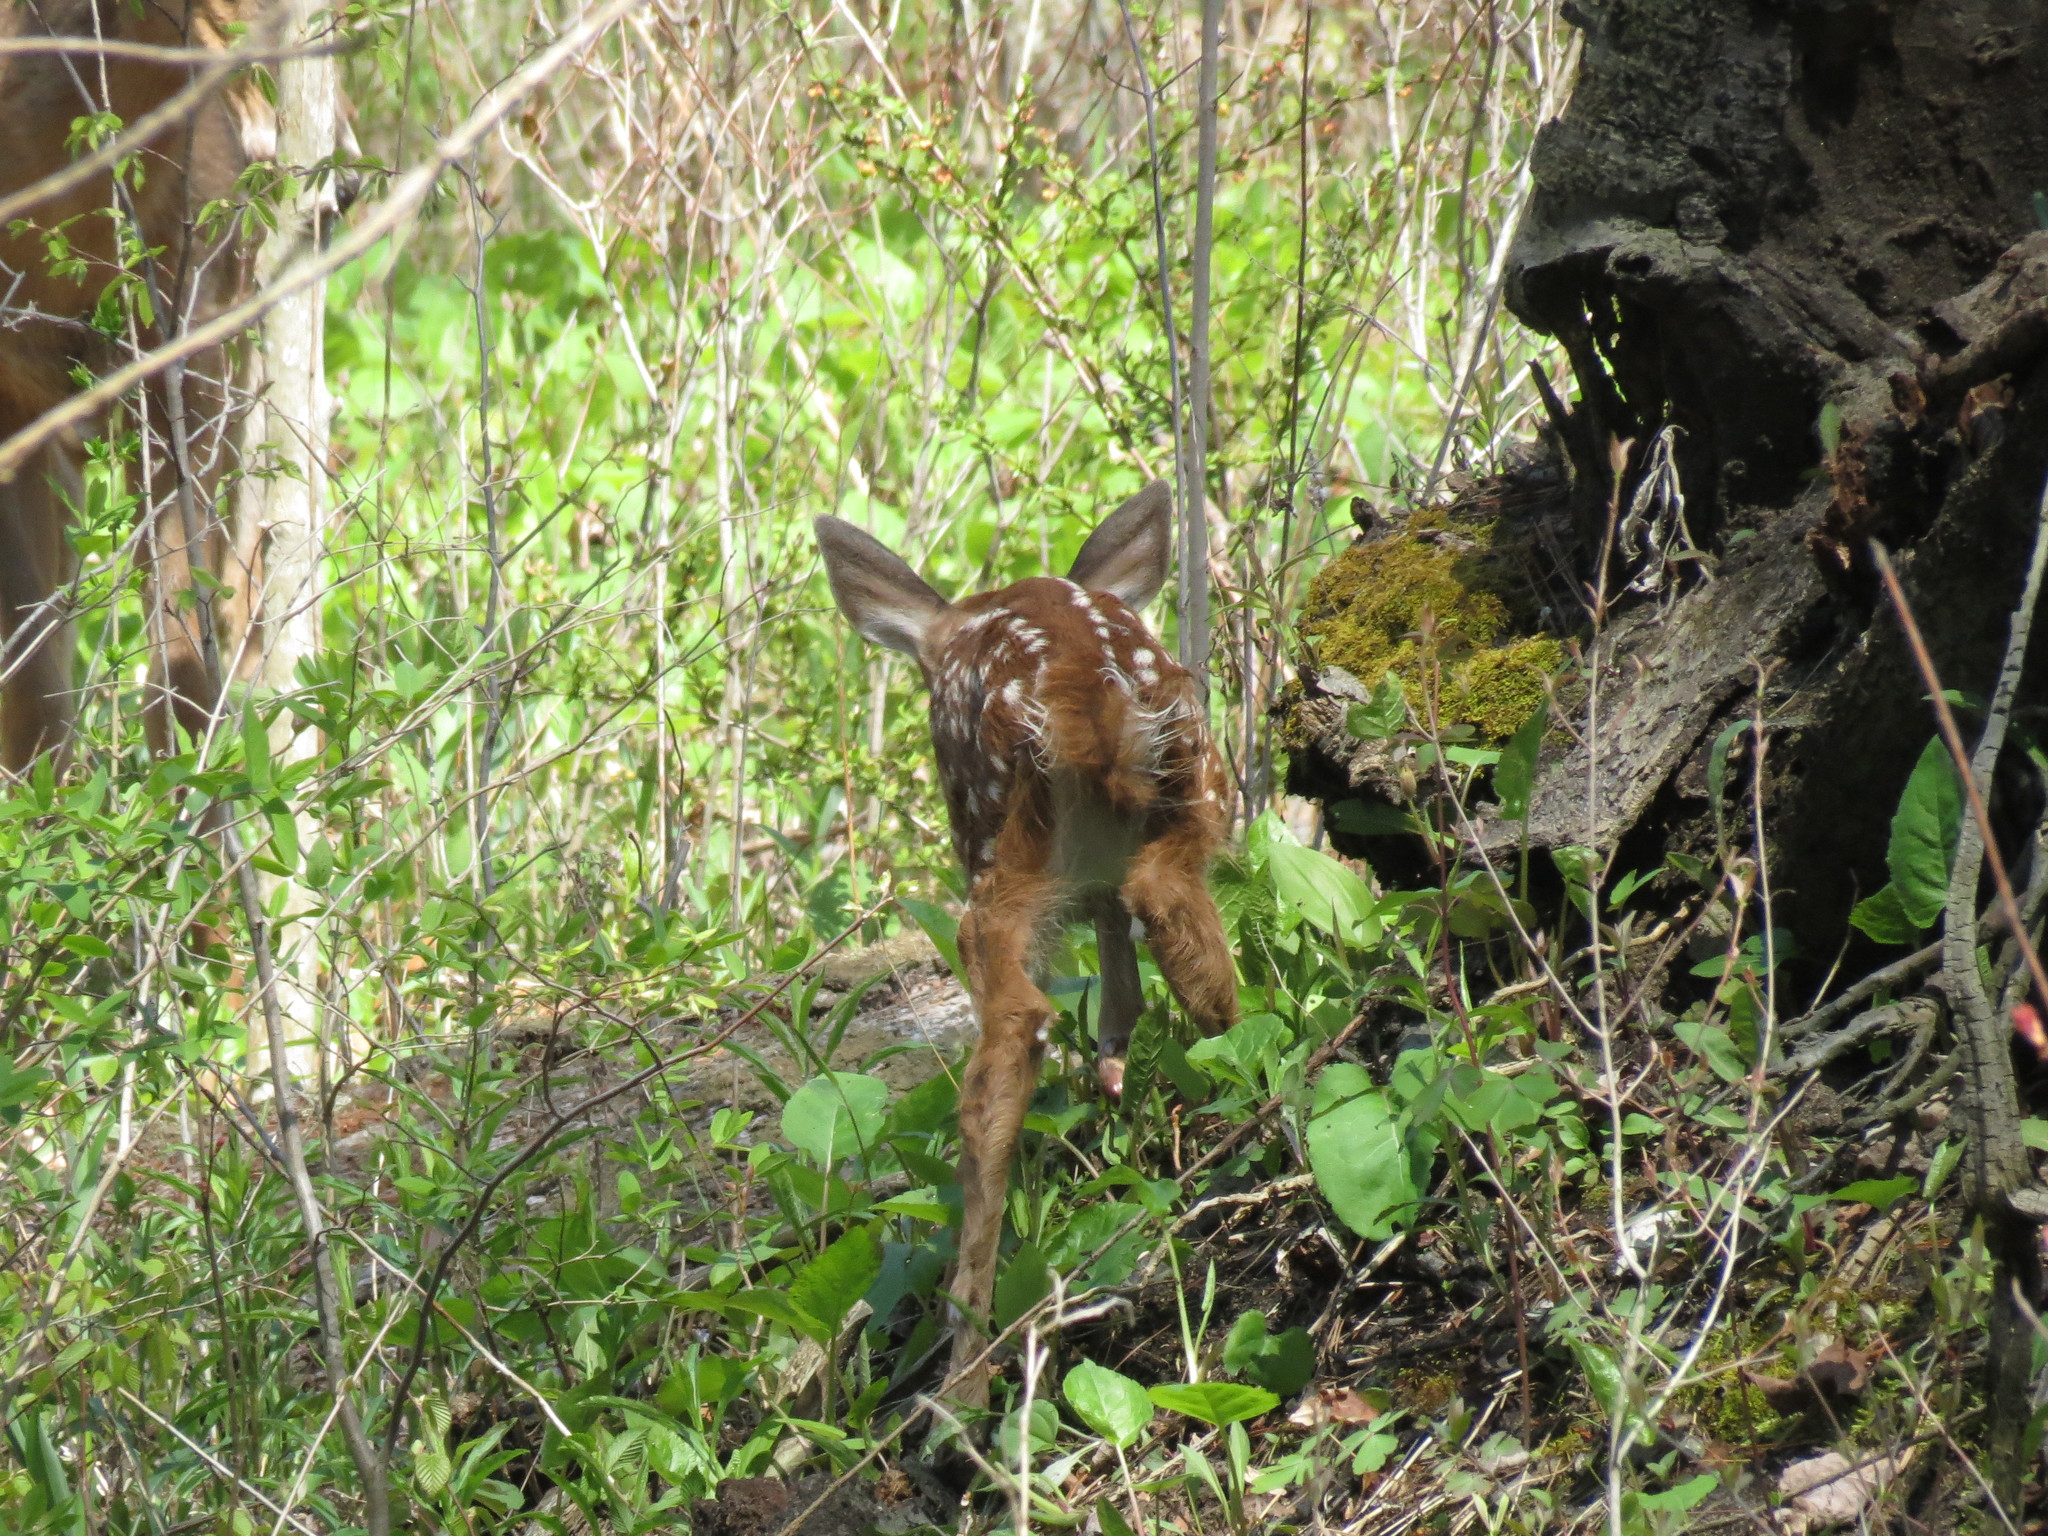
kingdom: Animalia
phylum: Chordata
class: Mammalia
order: Artiodactyla
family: Cervidae
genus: Odocoileus
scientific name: Odocoileus virginianus
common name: White-tailed deer
